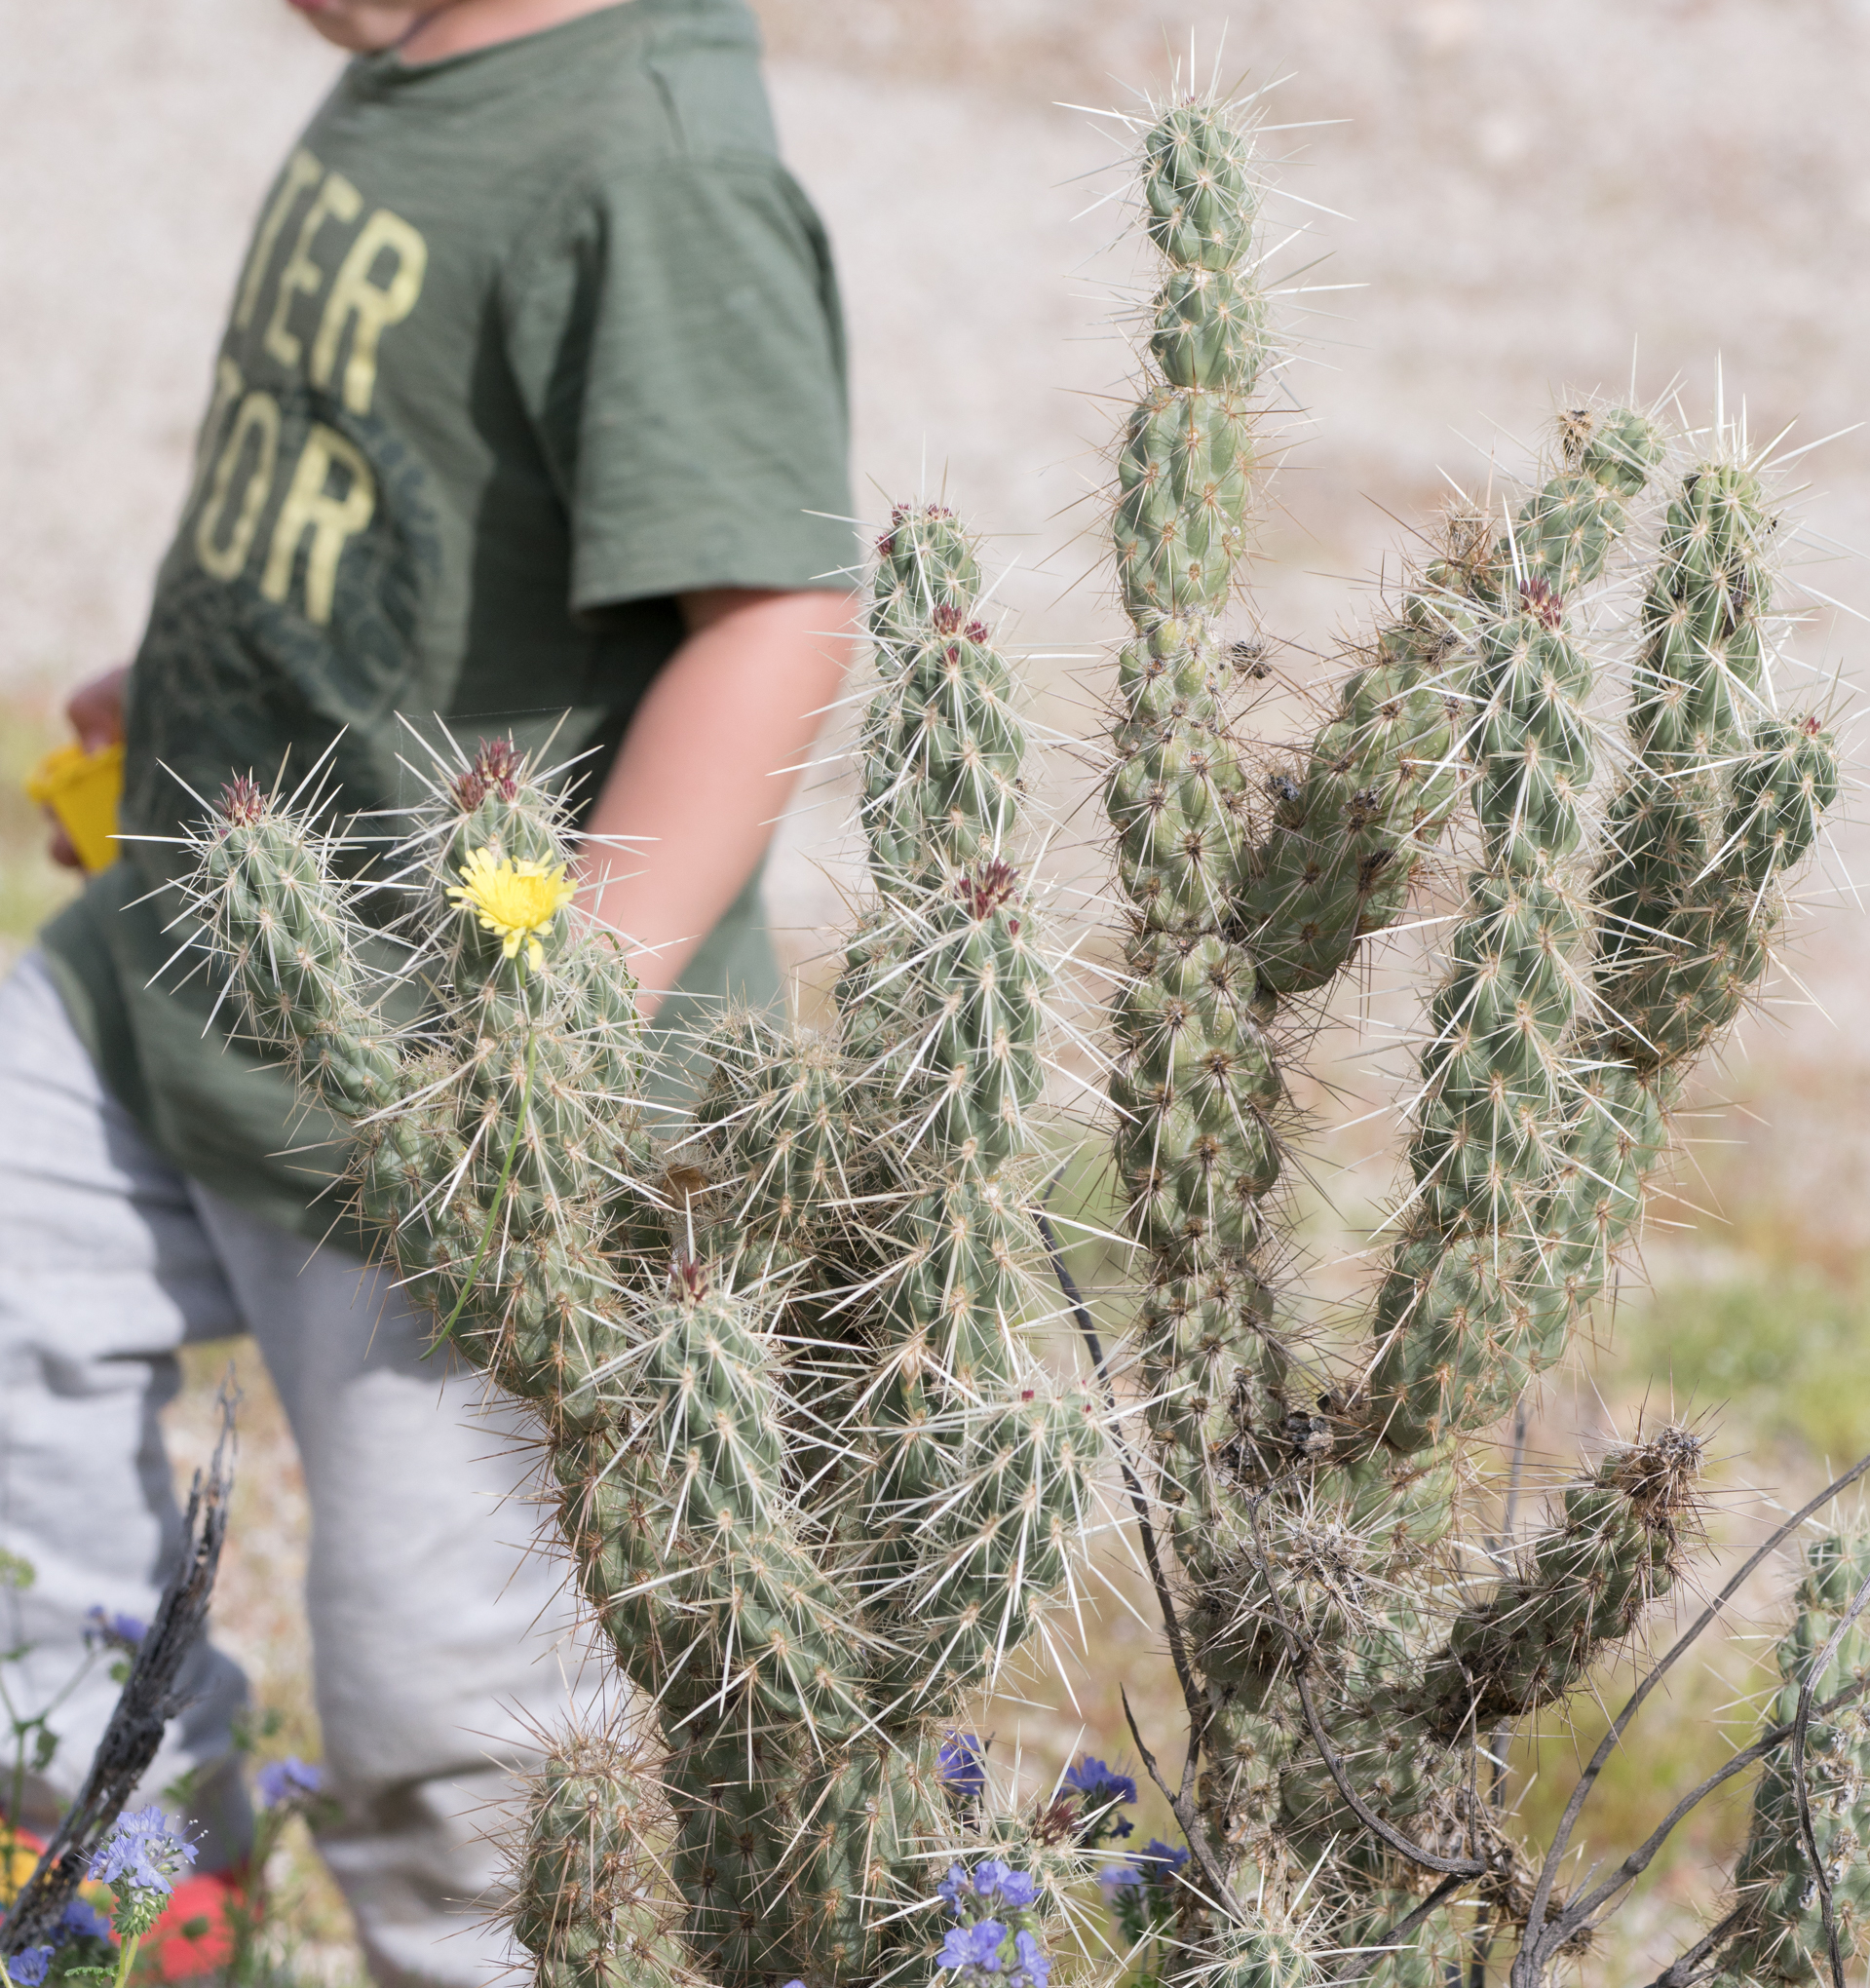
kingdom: Plantae
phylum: Tracheophyta
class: Magnoliopsida
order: Caryophyllales
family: Cactaceae
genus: Cylindropuntia
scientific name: Cylindropuntia ganderi
